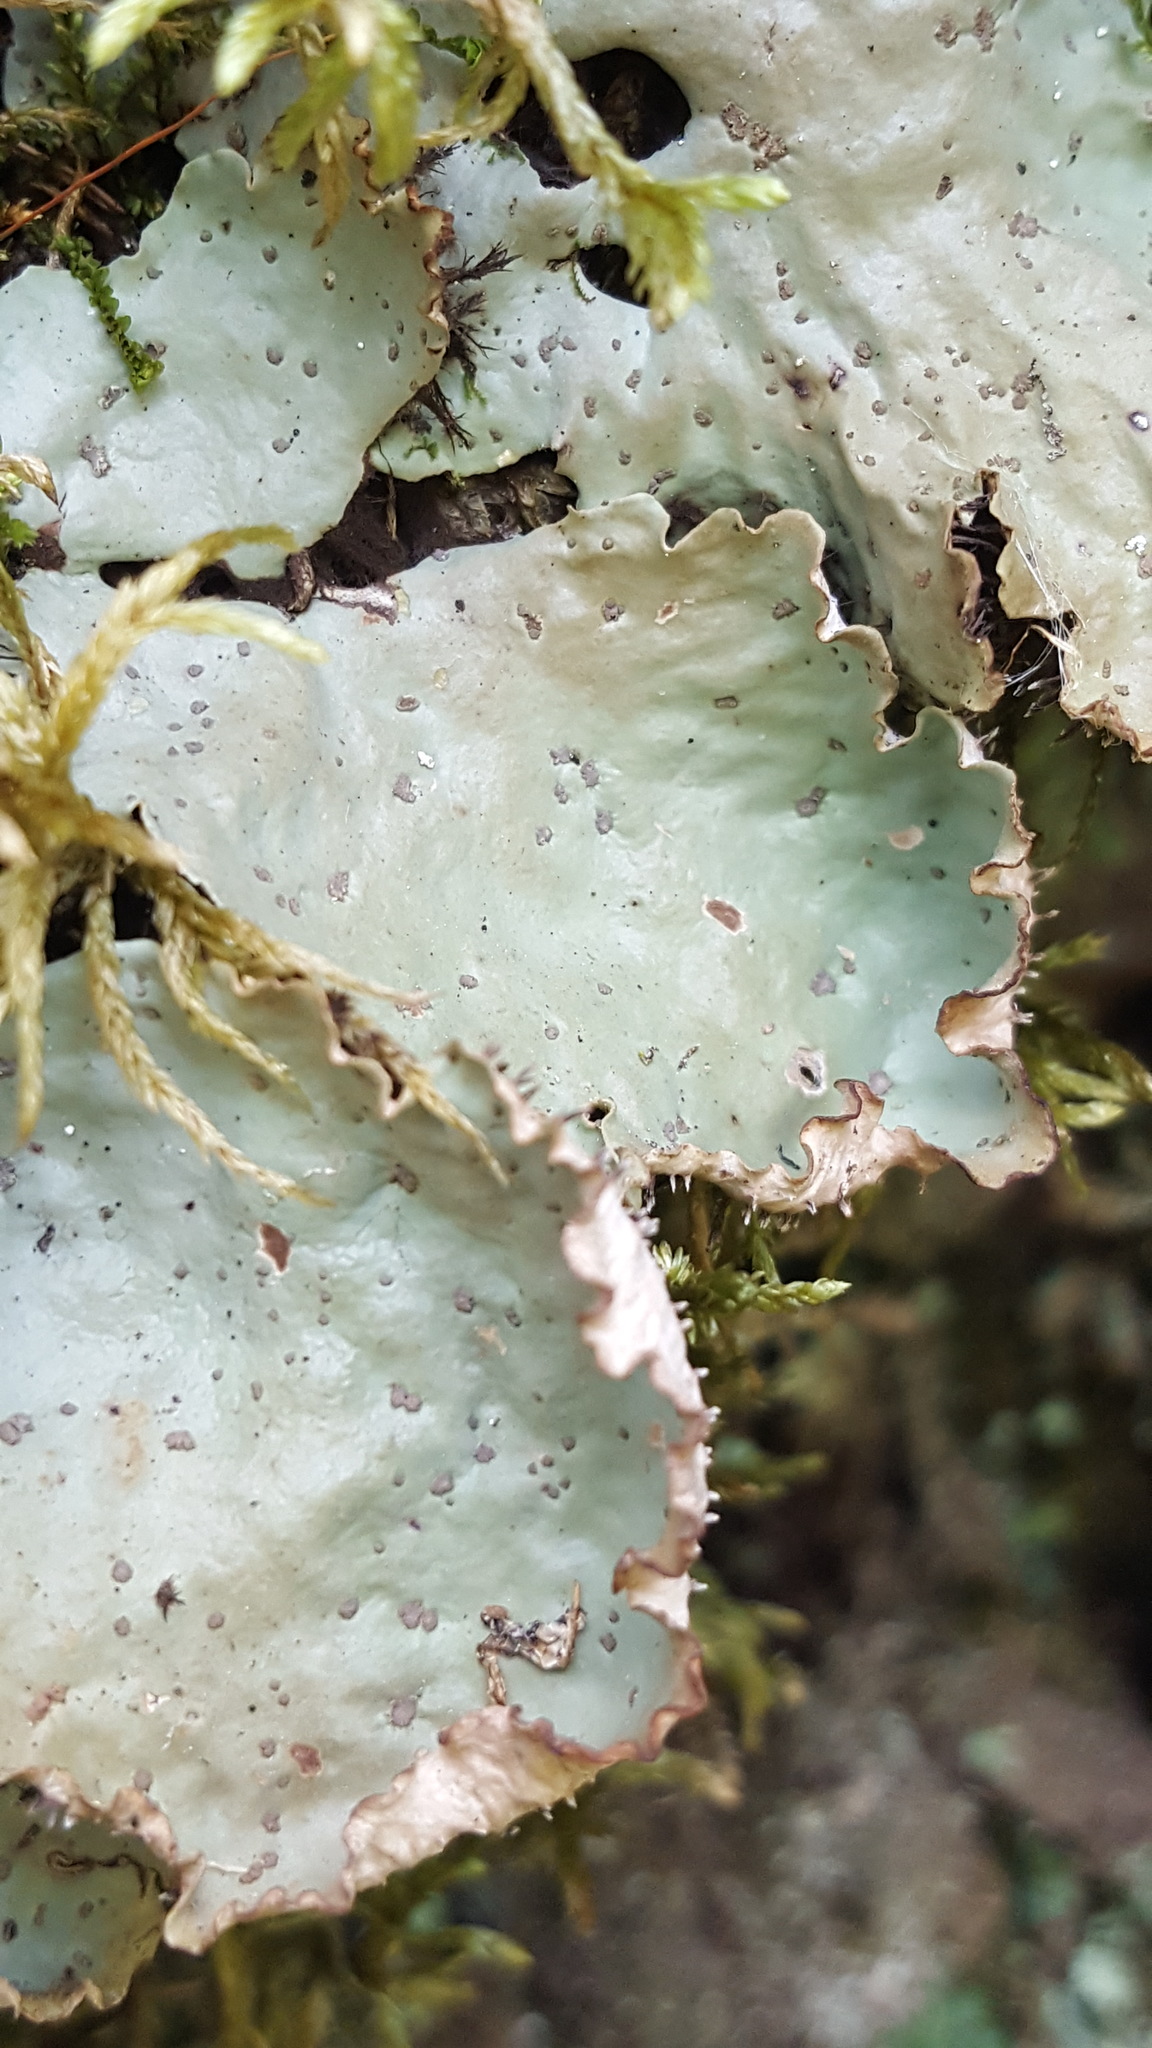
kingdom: Fungi
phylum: Ascomycota
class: Lecanoromycetes
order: Peltigerales
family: Peltigeraceae
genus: Peltigera
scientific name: Peltigera leucophlebia
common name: Ruffled freckle pelt lichen
